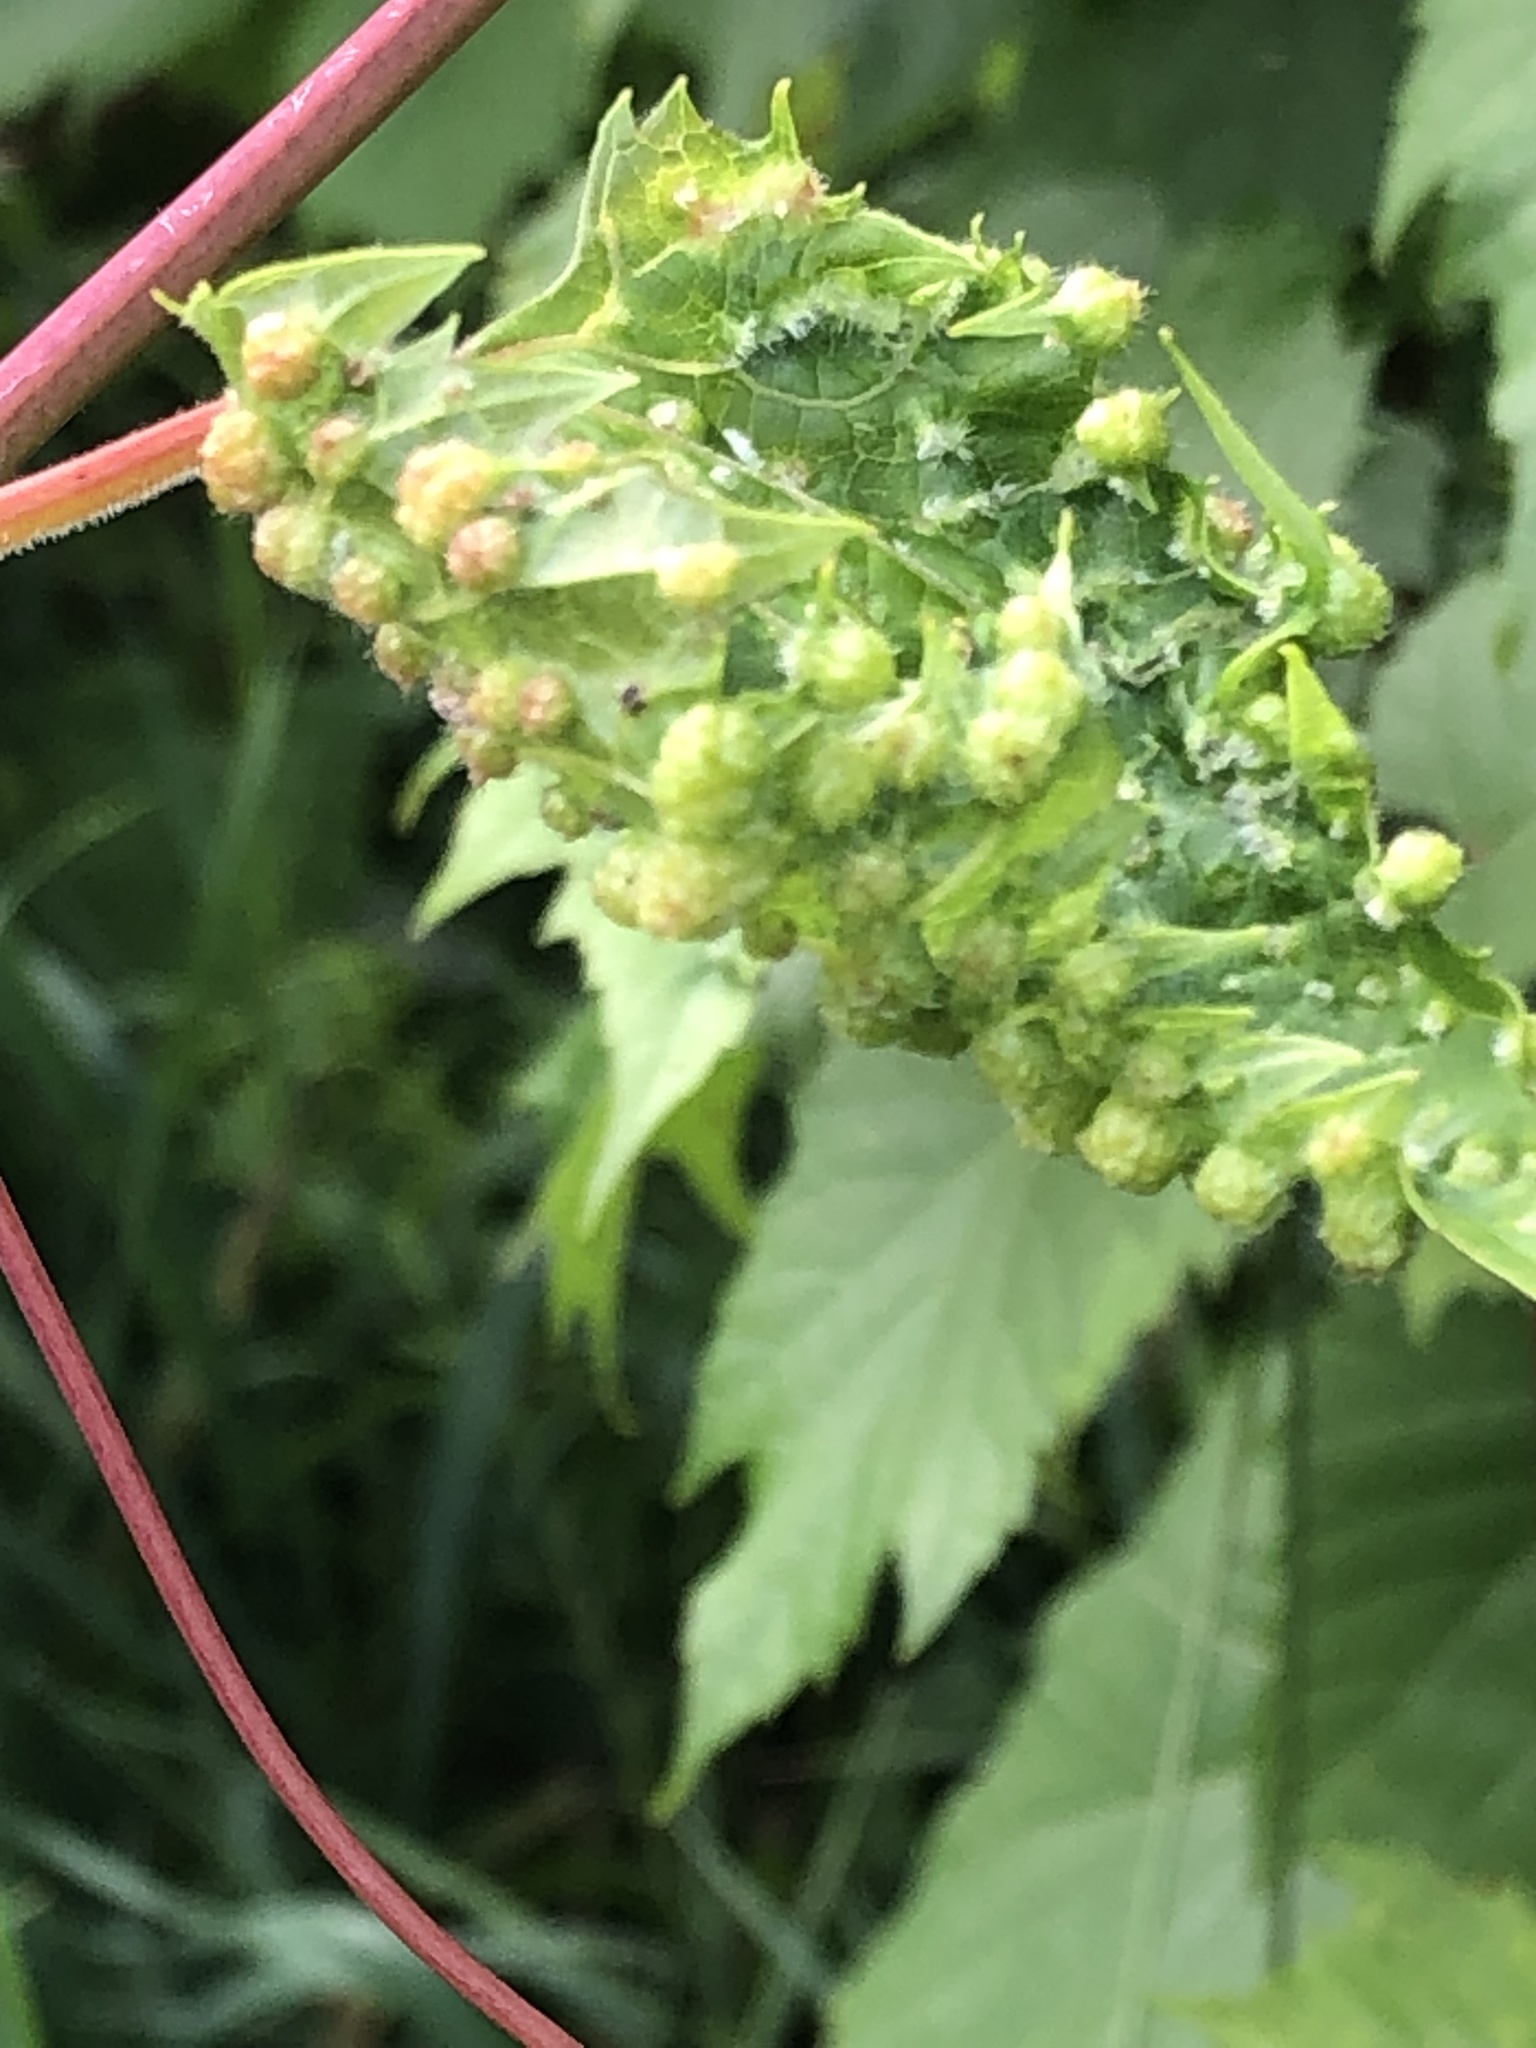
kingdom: Animalia
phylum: Arthropoda
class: Insecta
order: Hemiptera
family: Phylloxeridae
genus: Daktulosphaira
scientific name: Daktulosphaira vitifoliae
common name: Grape phylloxera
